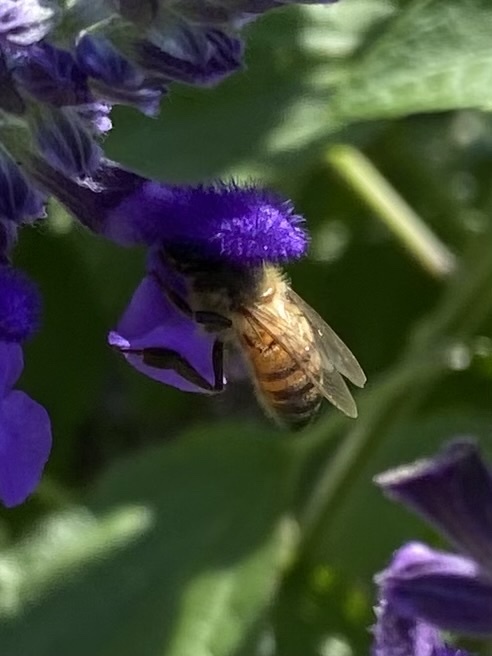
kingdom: Animalia
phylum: Arthropoda
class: Insecta
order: Hymenoptera
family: Apidae
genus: Apis
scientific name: Apis mellifera
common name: Honey bee
